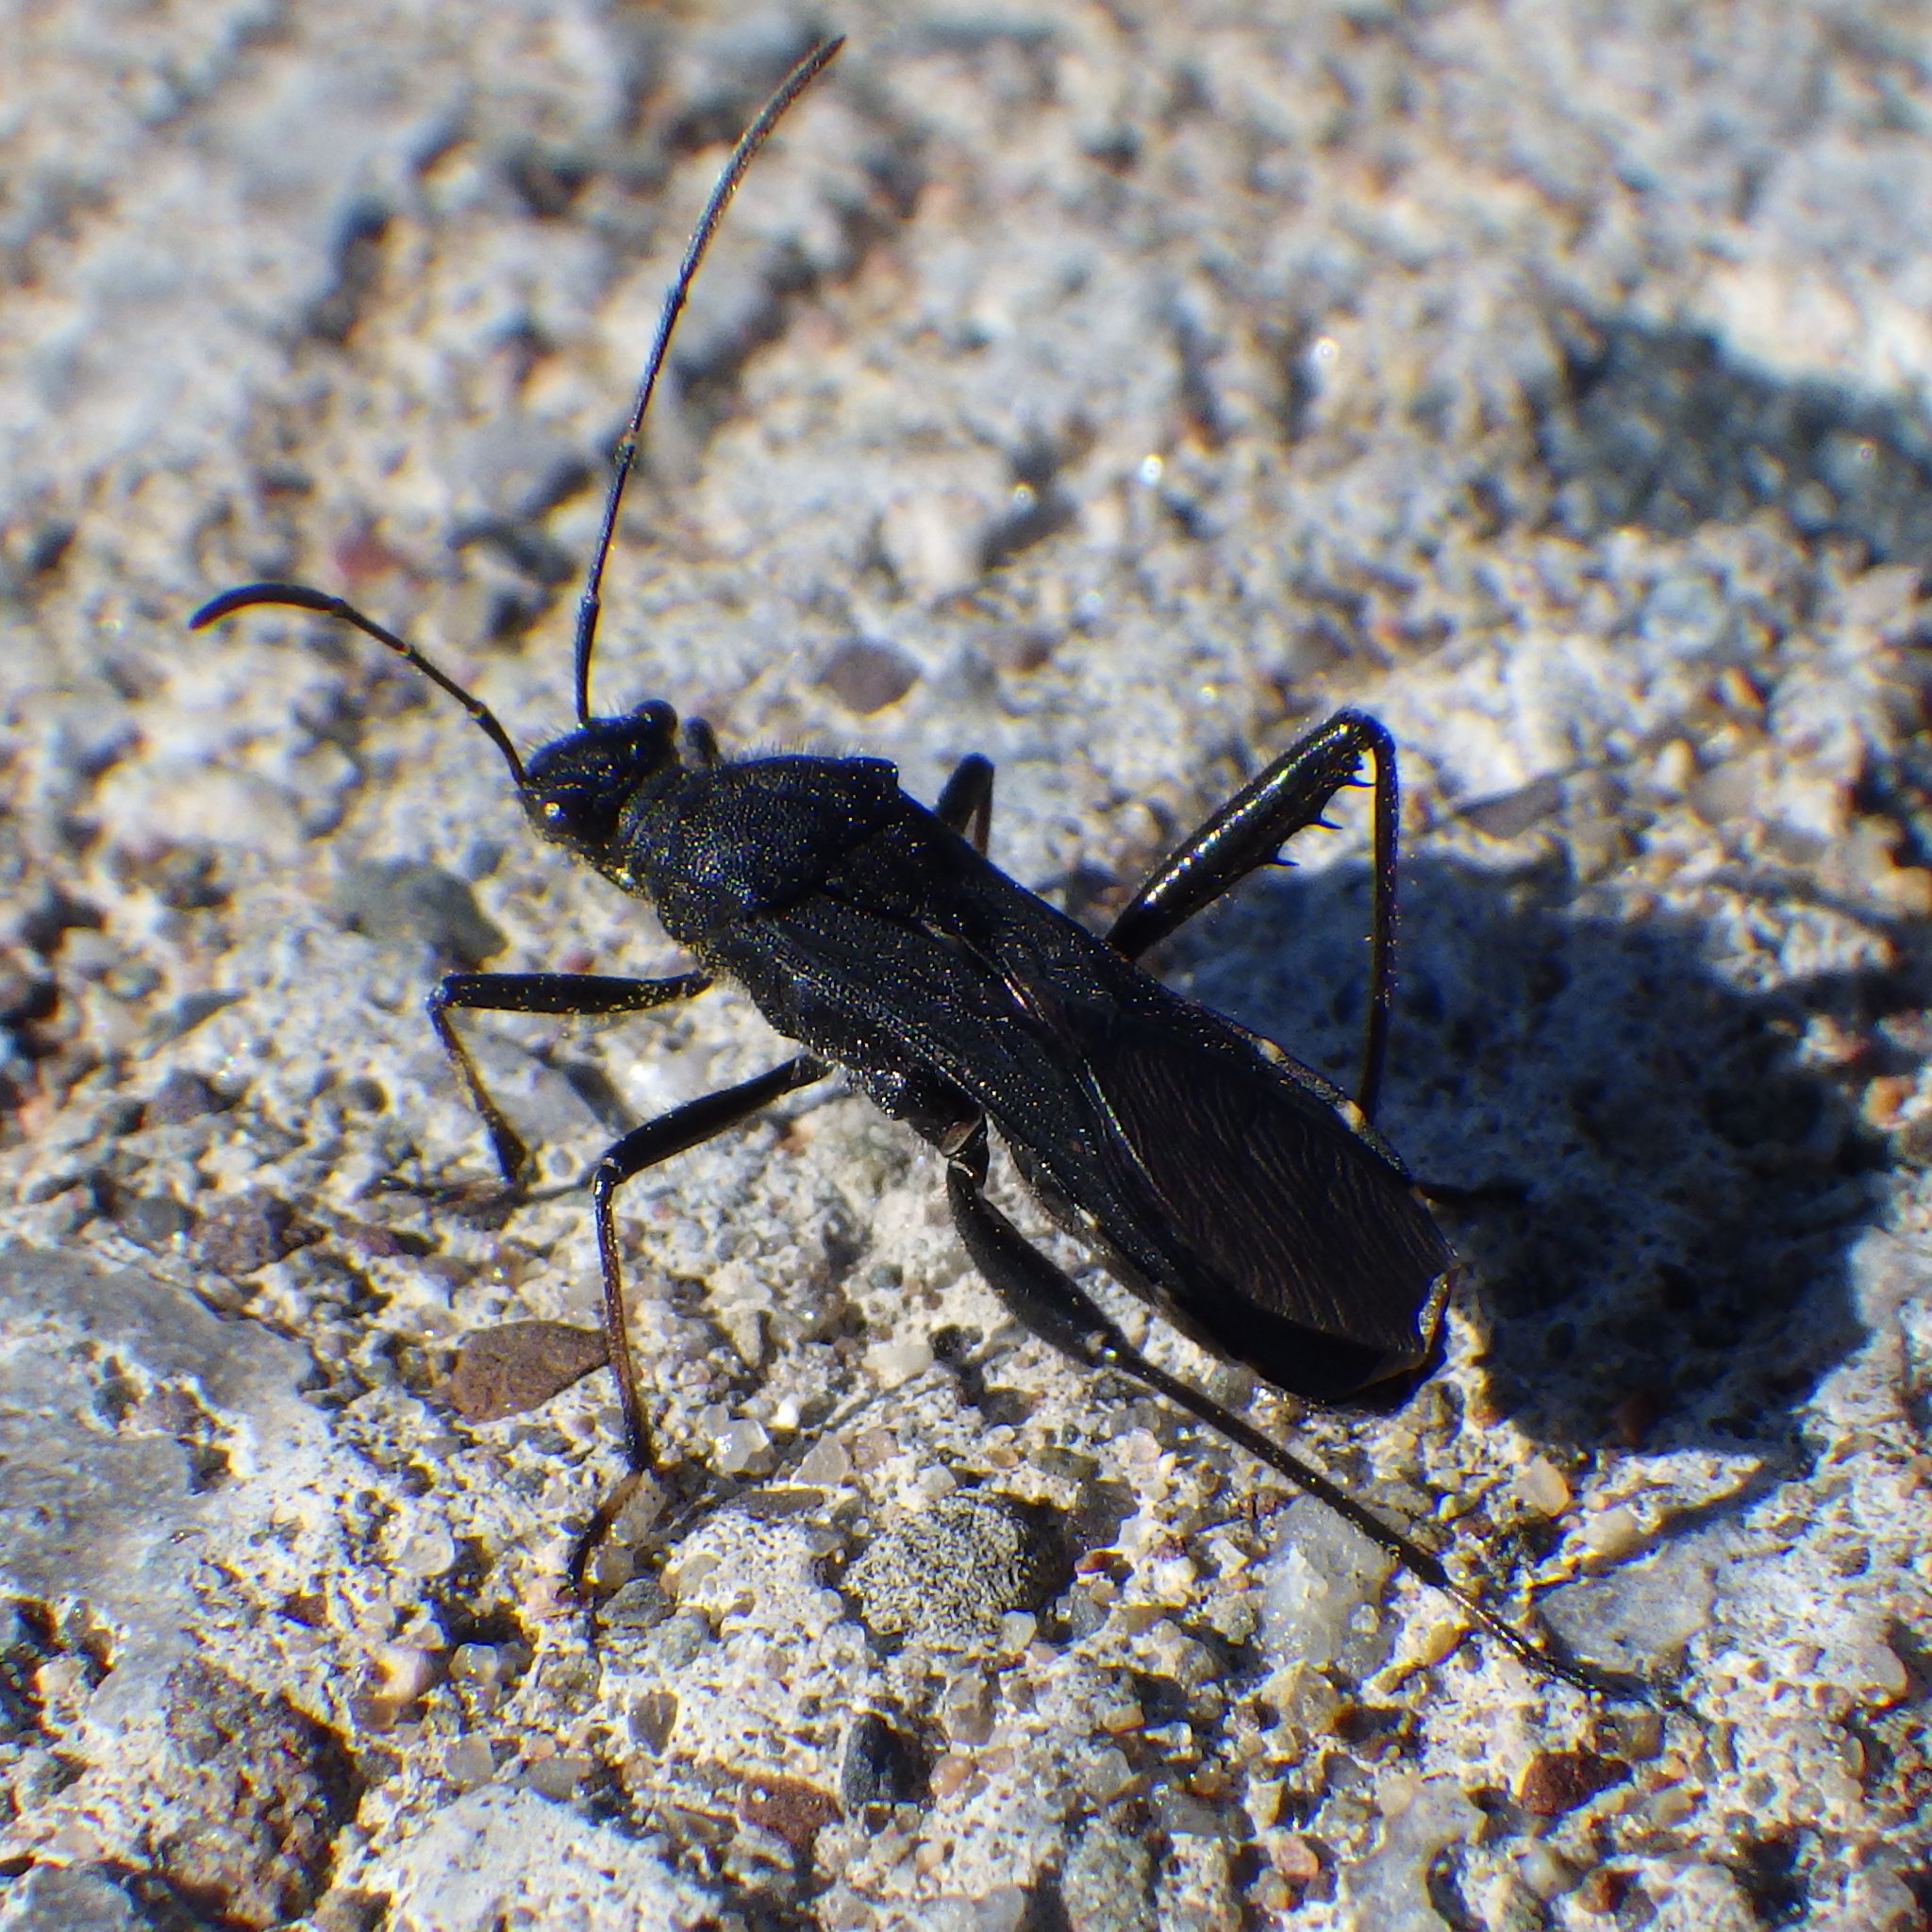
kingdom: Animalia
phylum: Arthropoda
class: Insecta
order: Hemiptera
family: Alydidae
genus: Alydus
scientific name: Alydus eurinus
